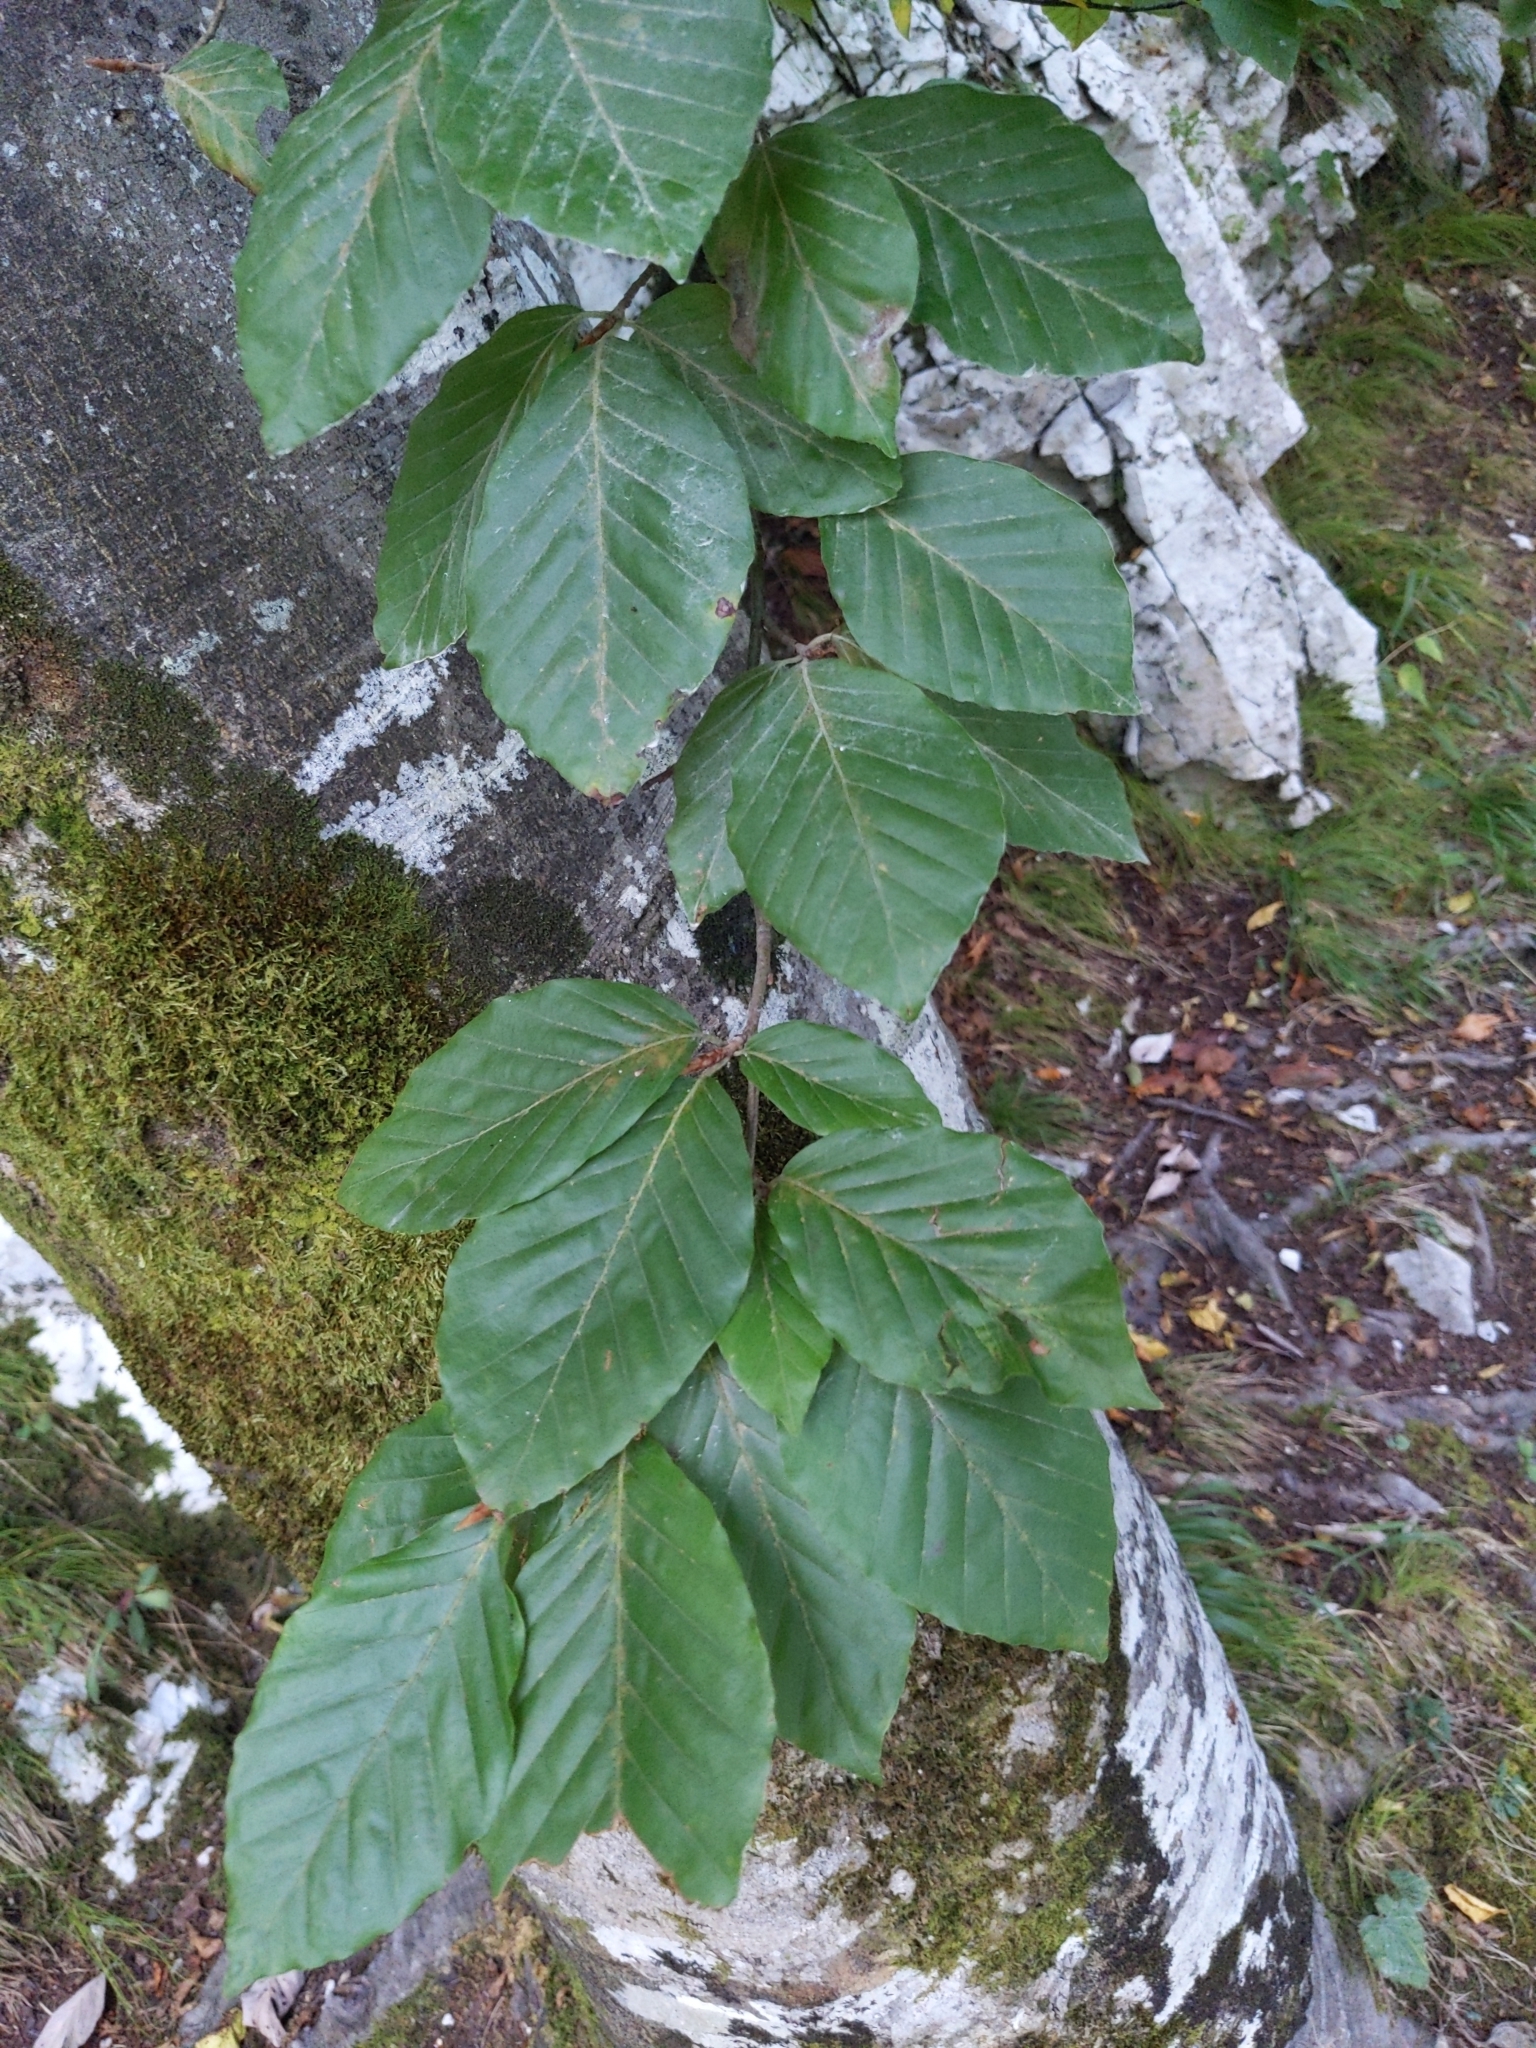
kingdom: Plantae
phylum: Tracheophyta
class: Magnoliopsida
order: Fagales
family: Fagaceae
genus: Fagus
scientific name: Fagus sylvatica
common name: Beech
